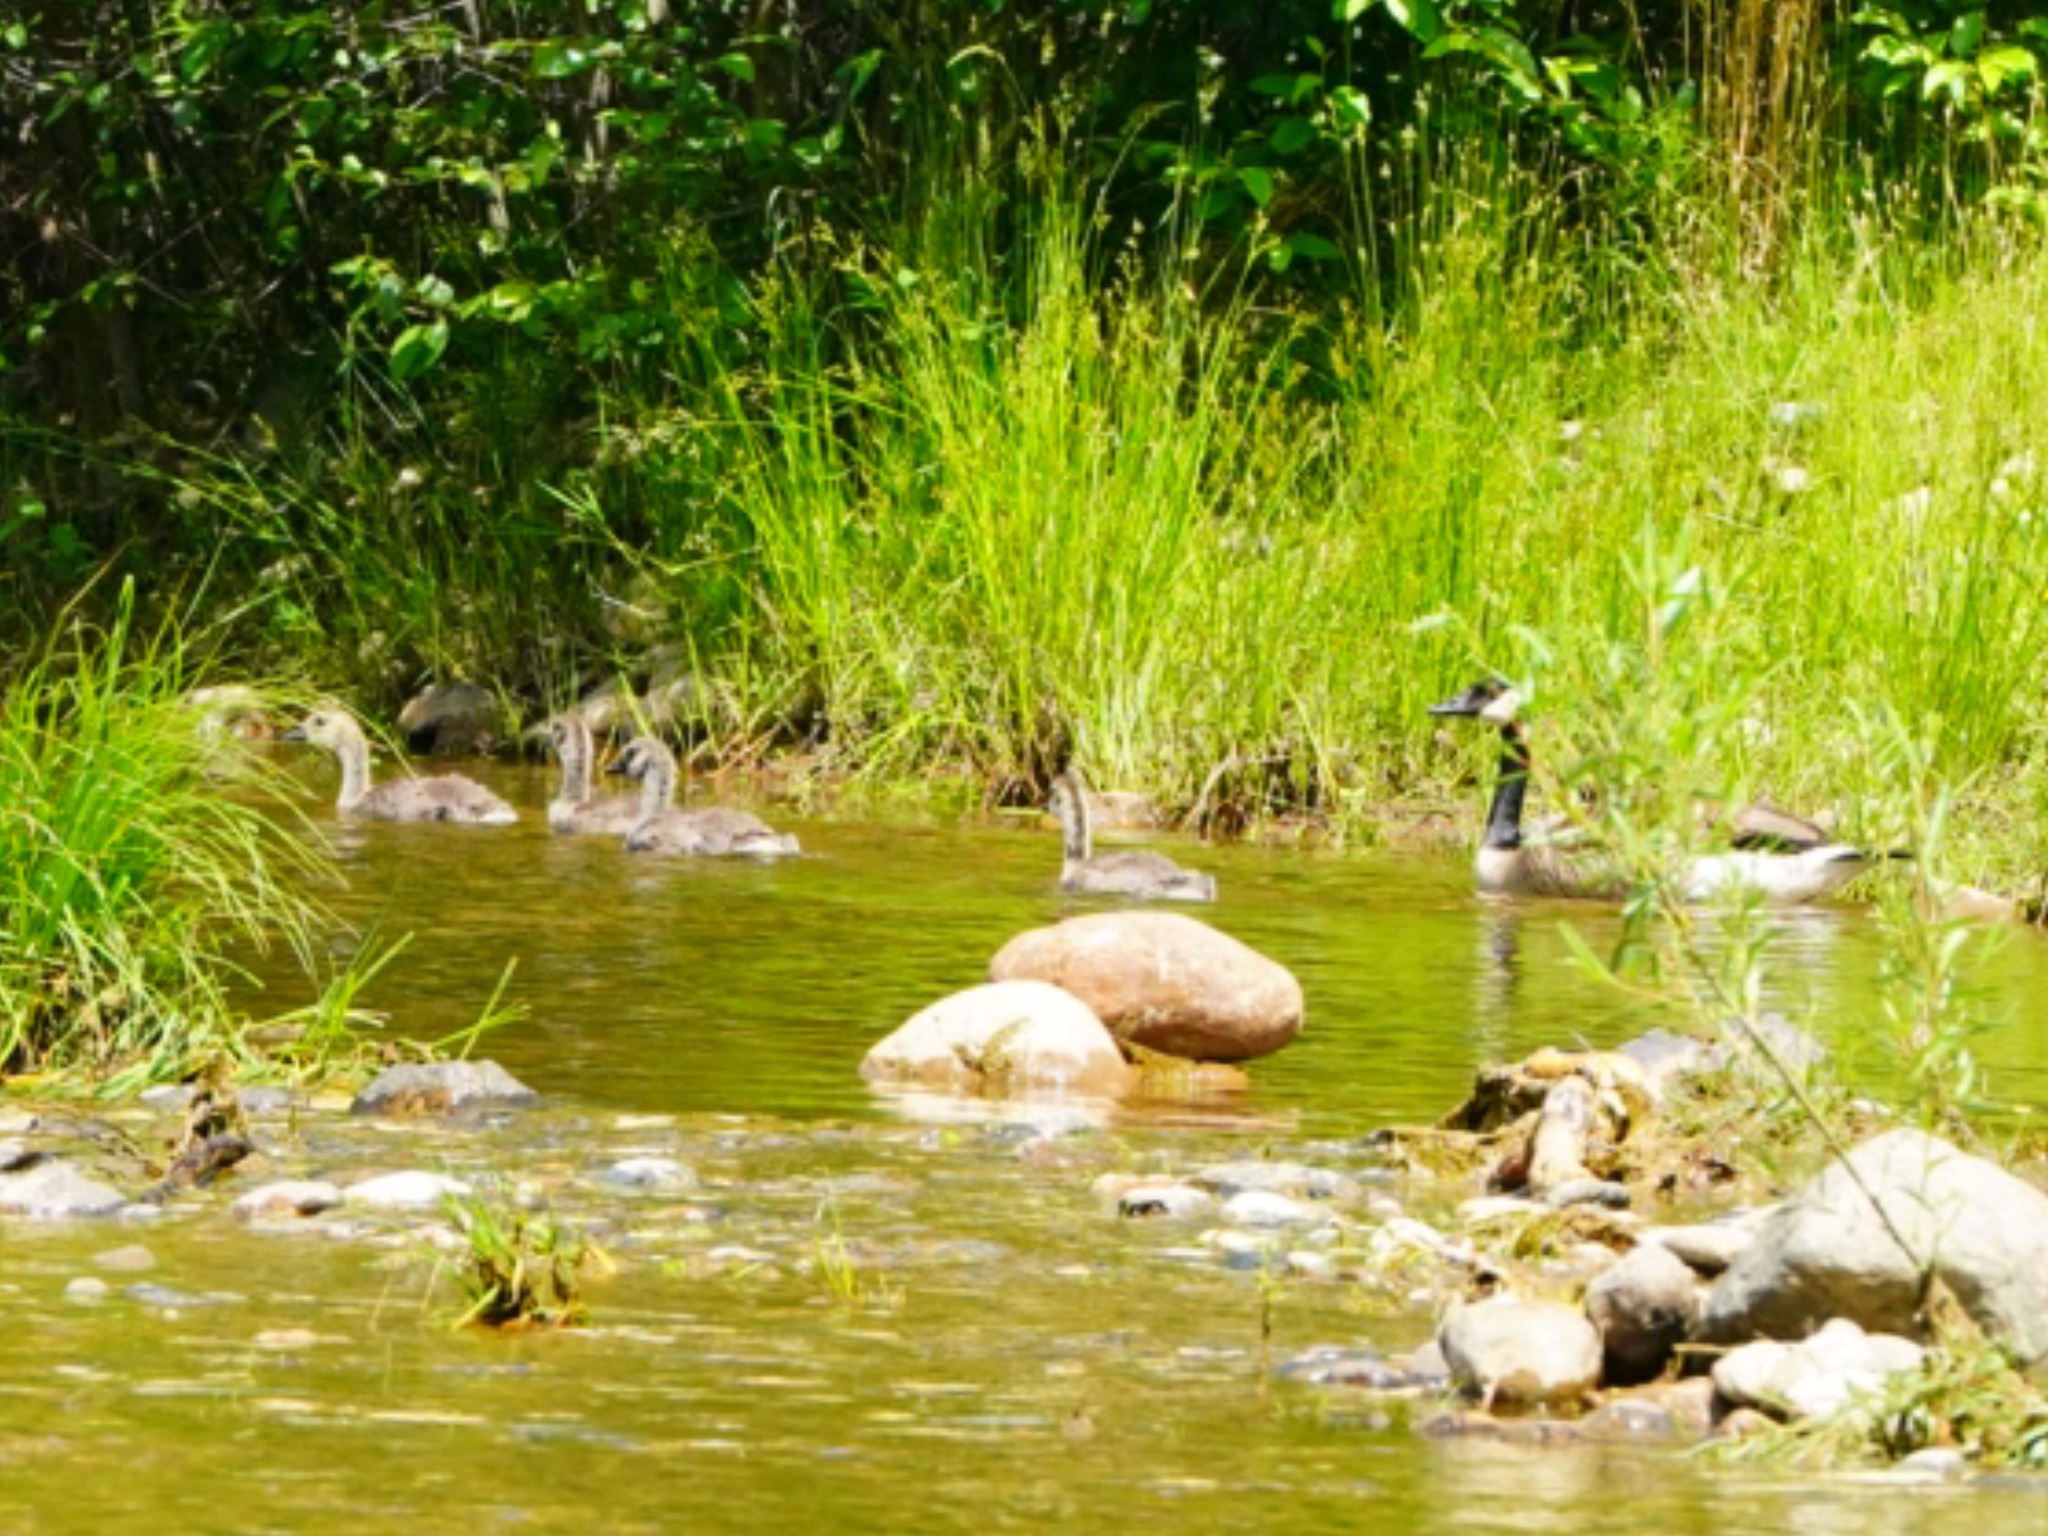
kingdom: Animalia
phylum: Chordata
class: Aves
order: Anseriformes
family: Anatidae
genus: Branta
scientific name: Branta canadensis
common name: Canada goose
